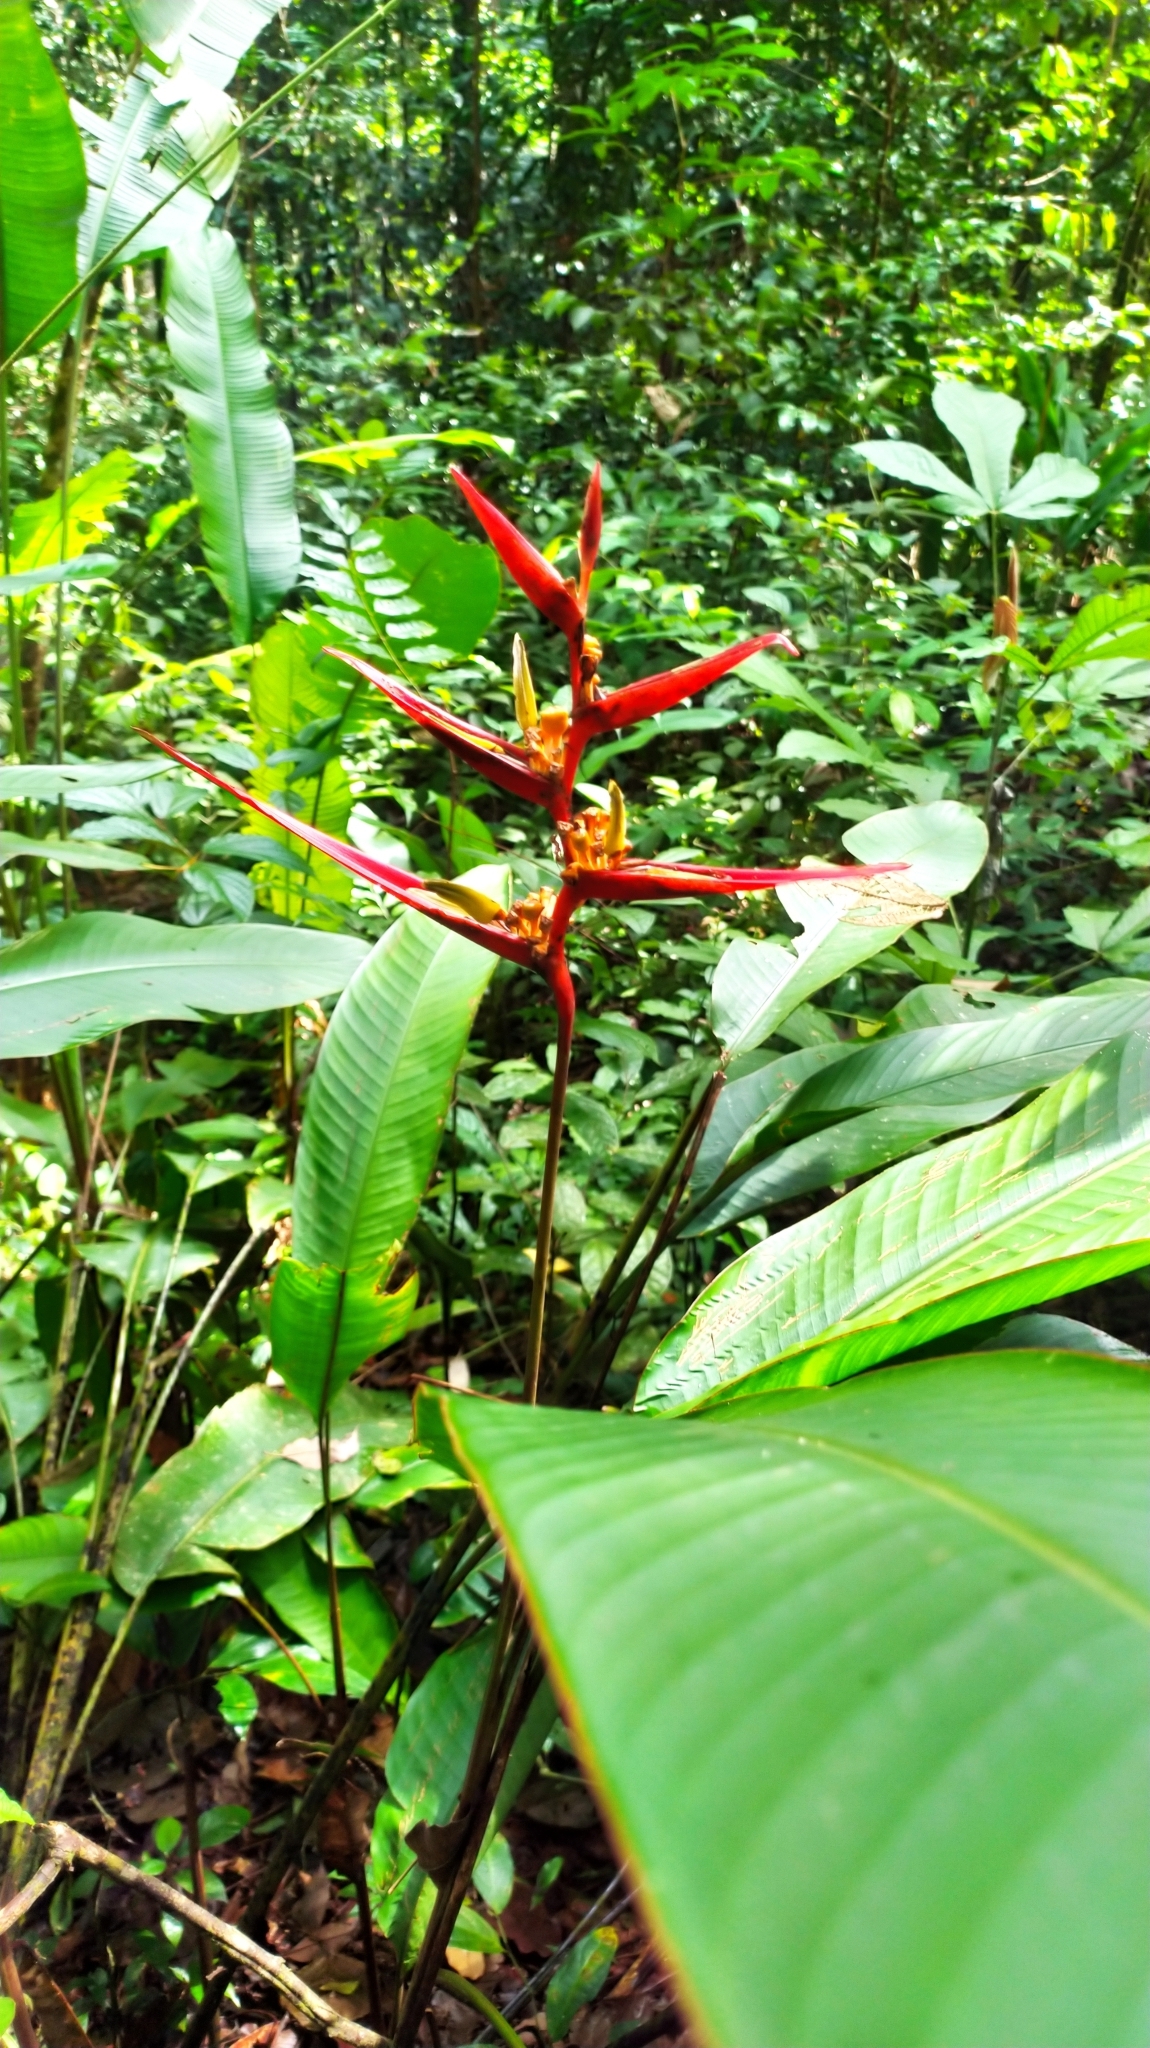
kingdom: Plantae
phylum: Tracheophyta
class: Liliopsida
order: Zingiberales
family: Heliconiaceae
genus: Heliconia
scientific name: Heliconia acuminata
